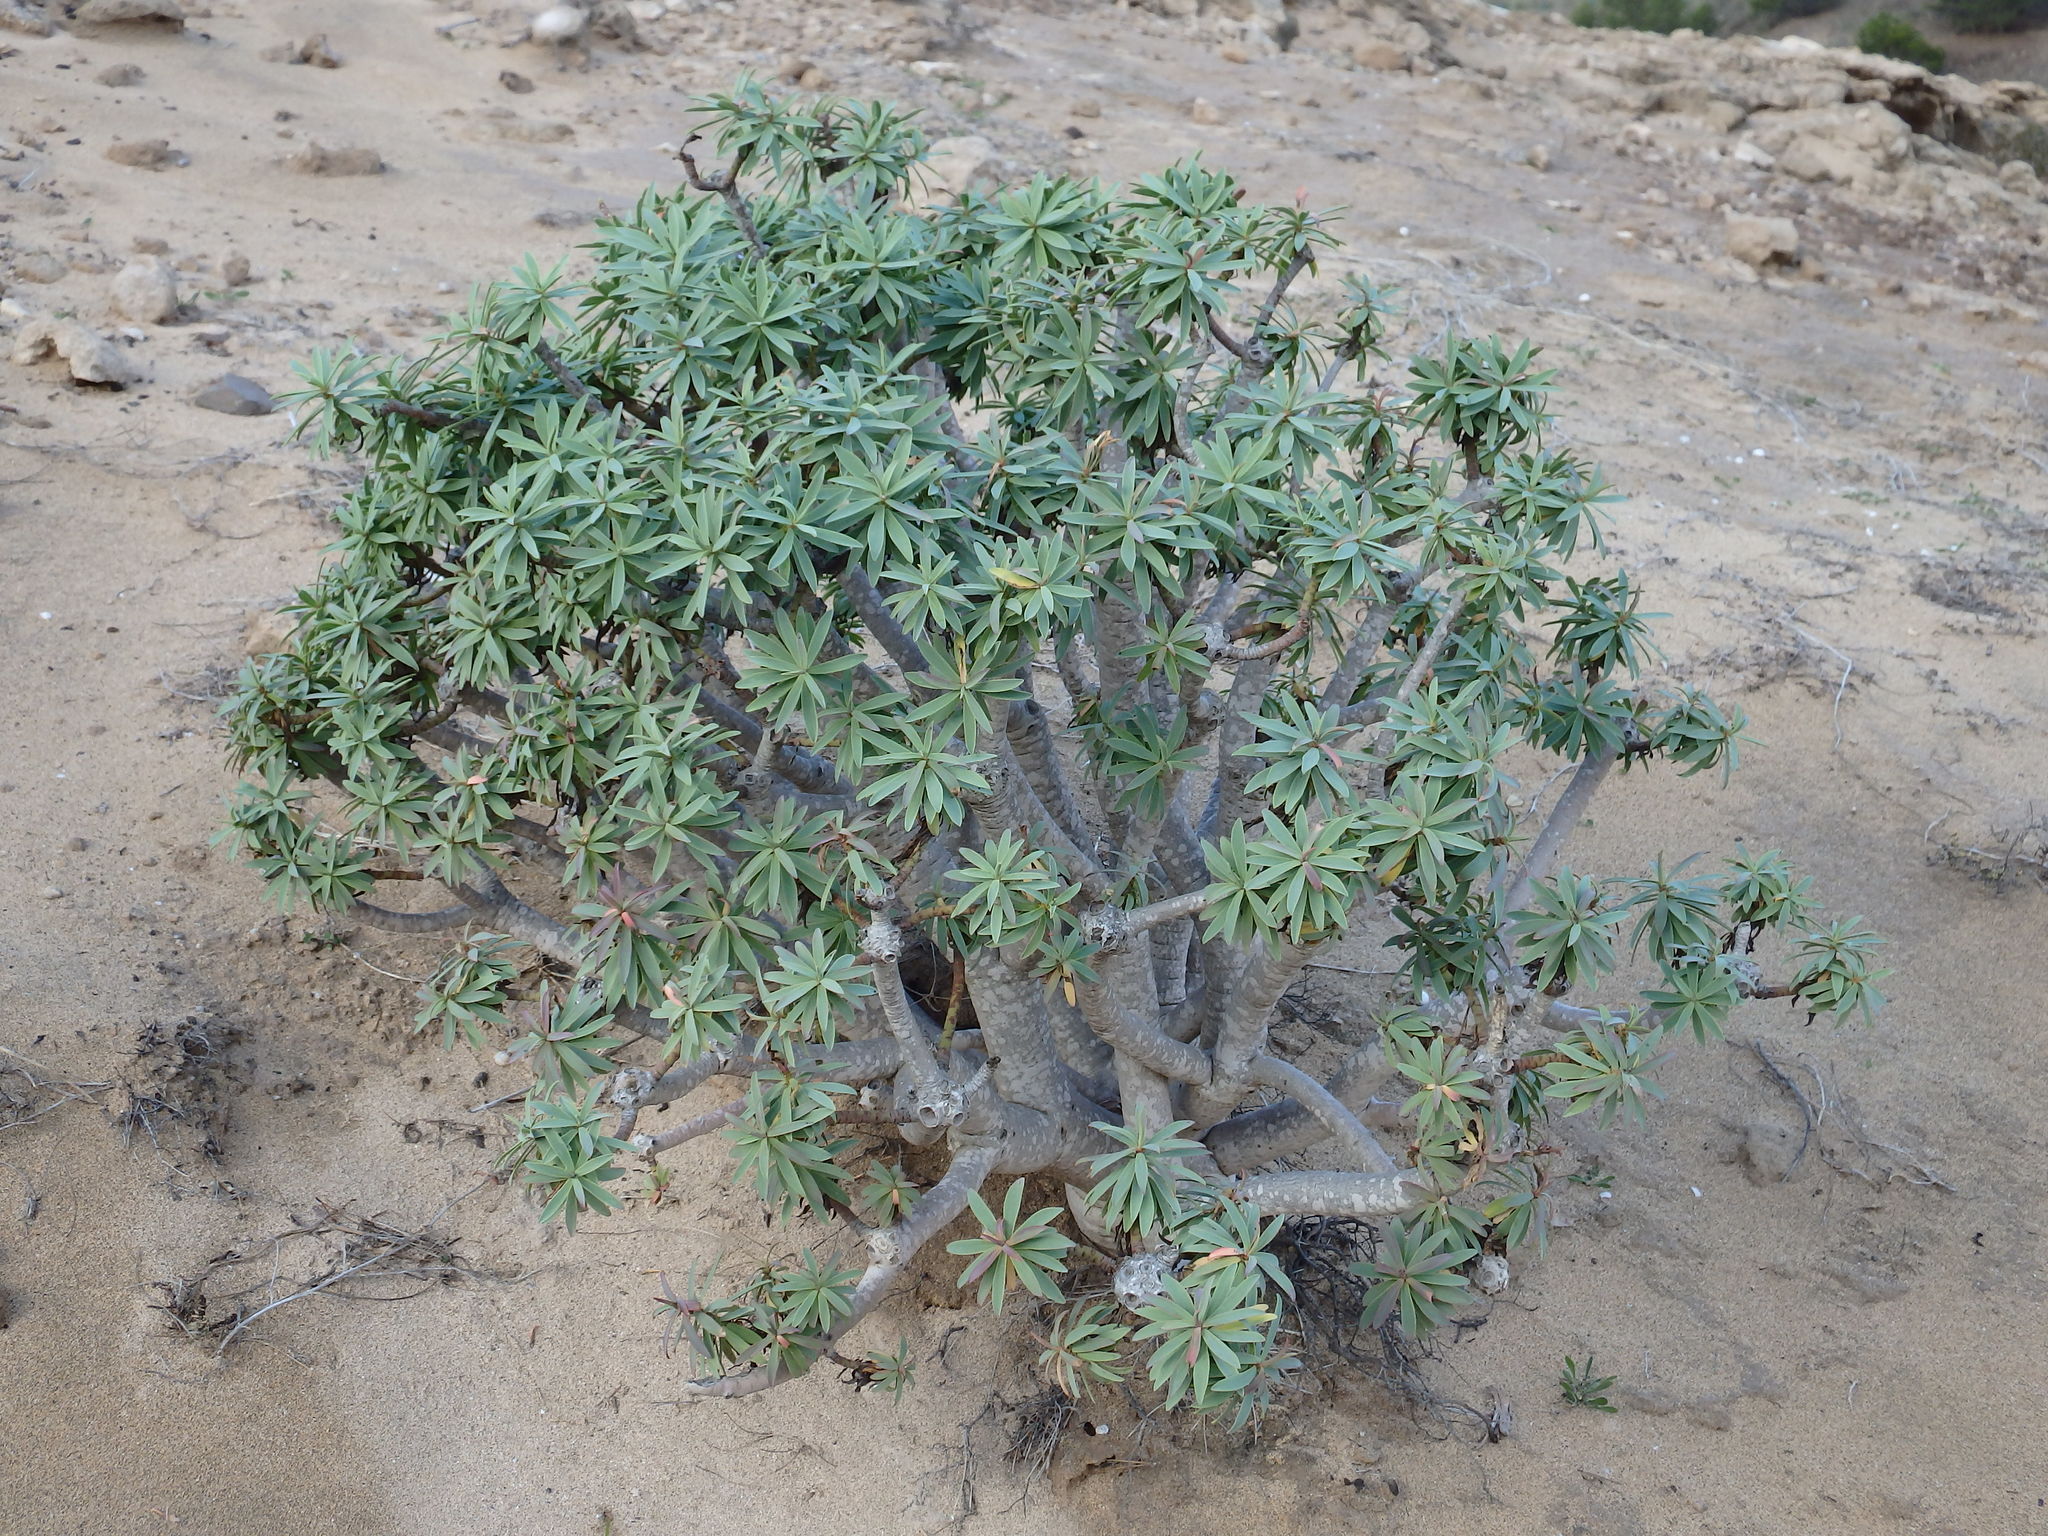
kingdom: Plantae
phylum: Tracheophyta
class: Magnoliopsida
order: Malpighiales
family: Euphorbiaceae
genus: Euphorbia
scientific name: Euphorbia piscatoria
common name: Fish-stunning spurge
